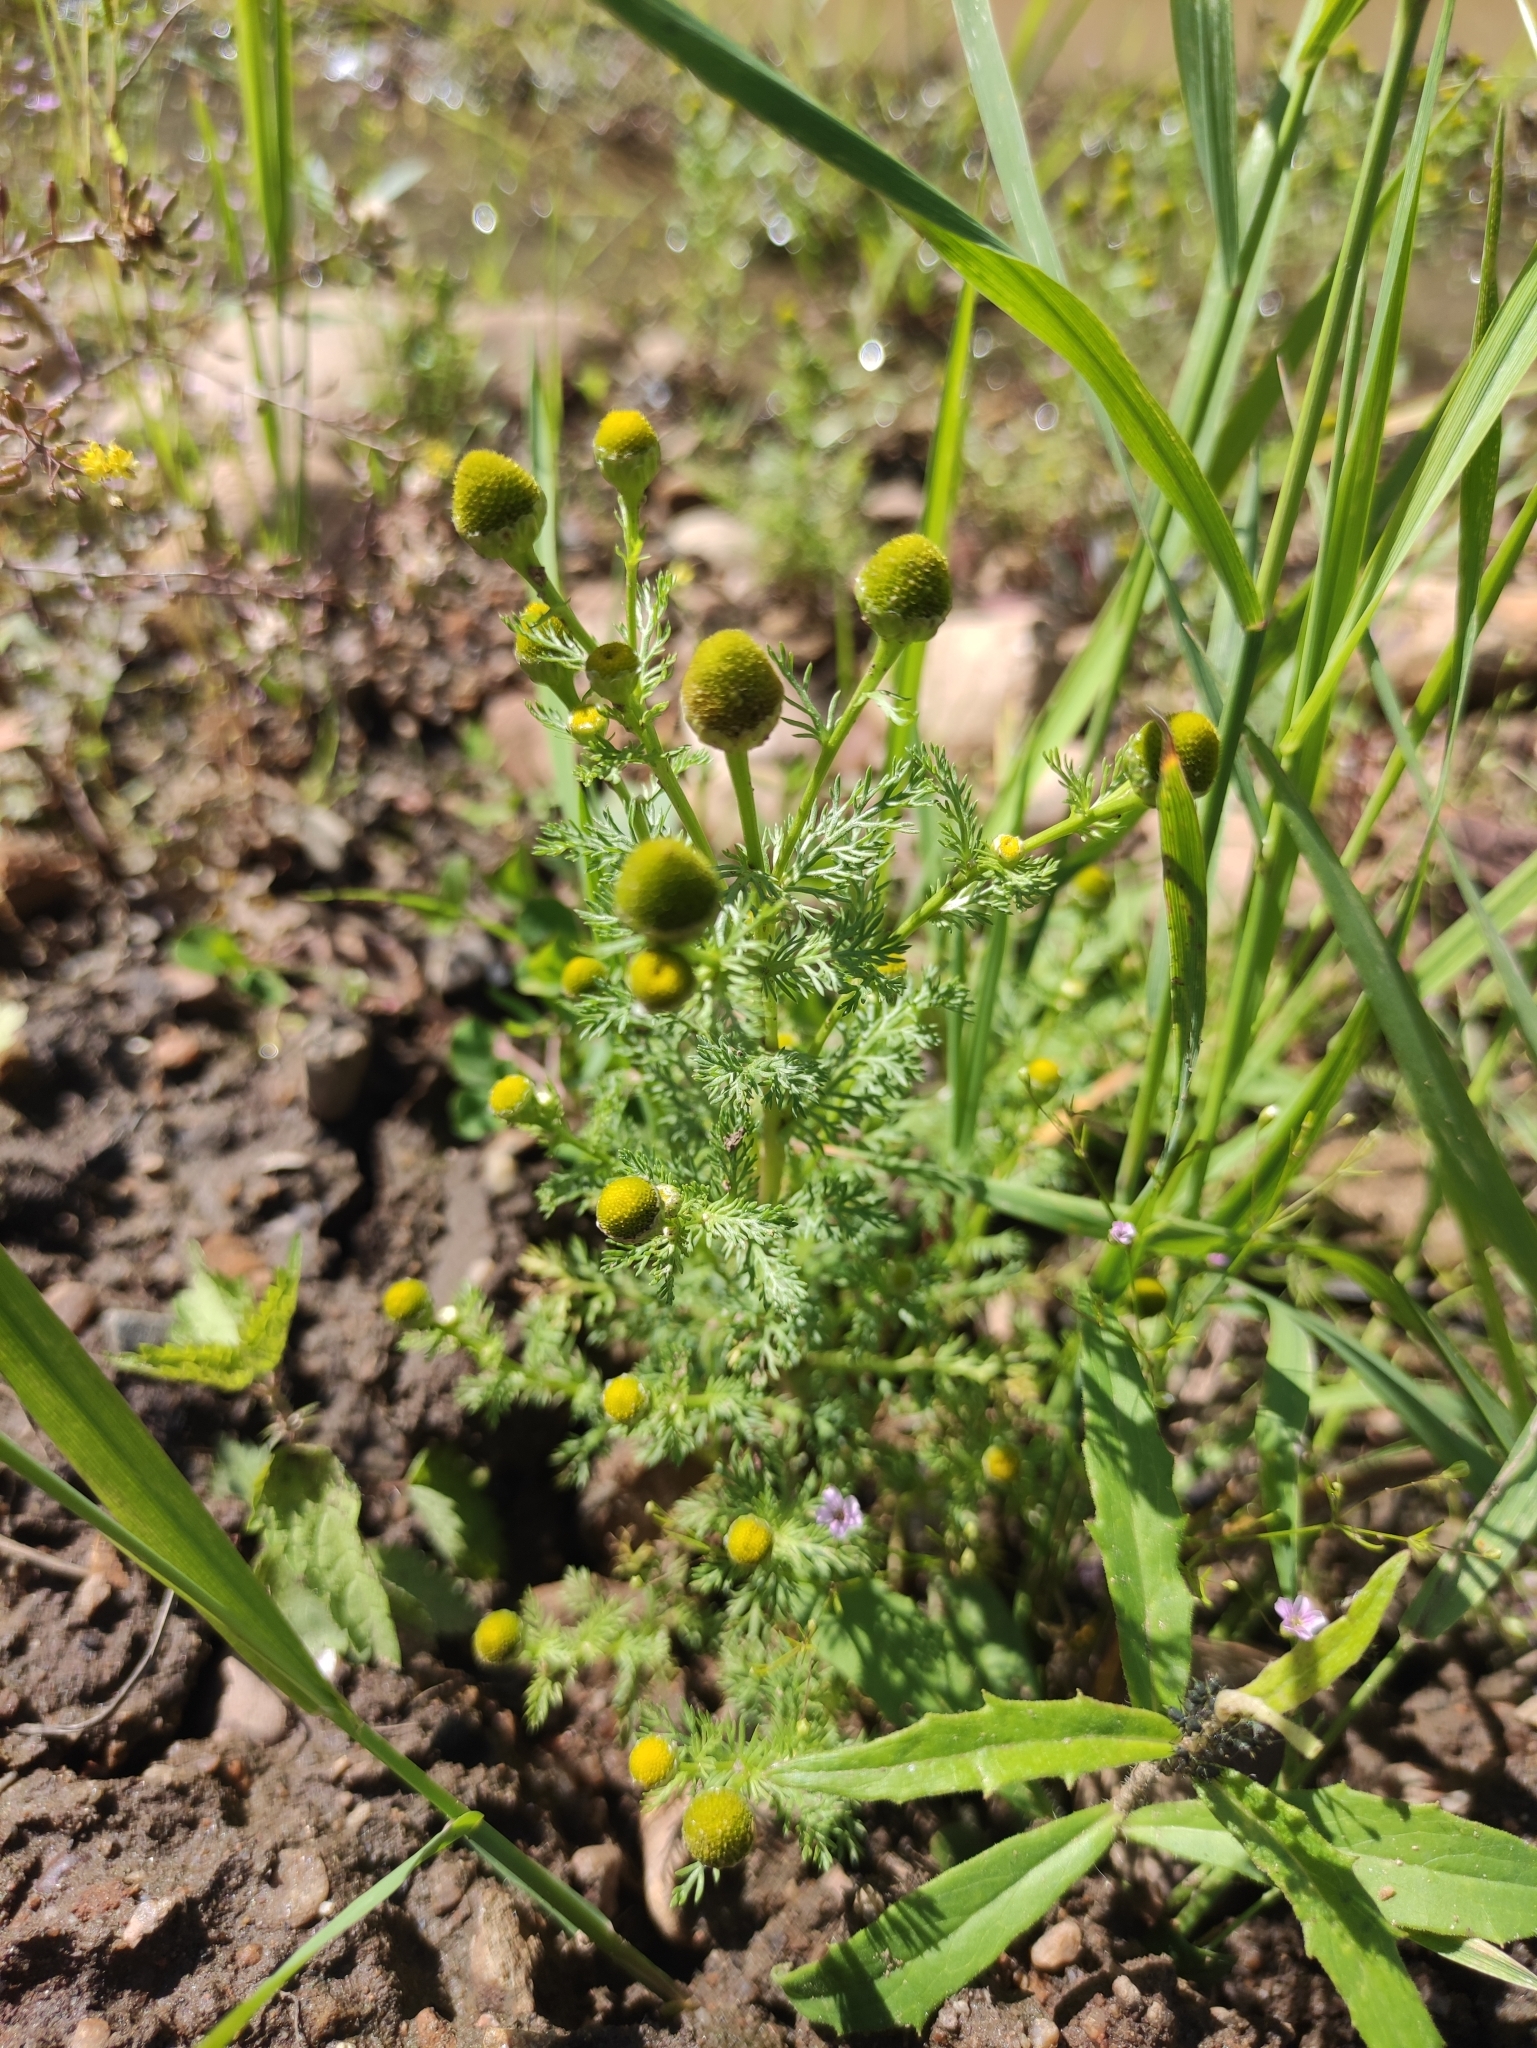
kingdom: Plantae
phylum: Tracheophyta
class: Magnoliopsida
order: Asterales
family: Asteraceae
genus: Matricaria
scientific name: Matricaria discoidea
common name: Disc mayweed
